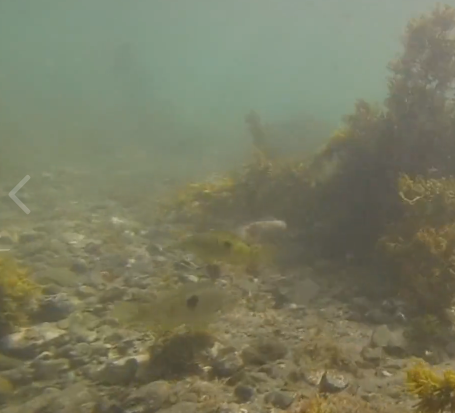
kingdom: Animalia
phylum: Chordata
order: Perciformes
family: Labridae
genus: Notolabrus
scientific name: Notolabrus celidotus
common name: Spotty
